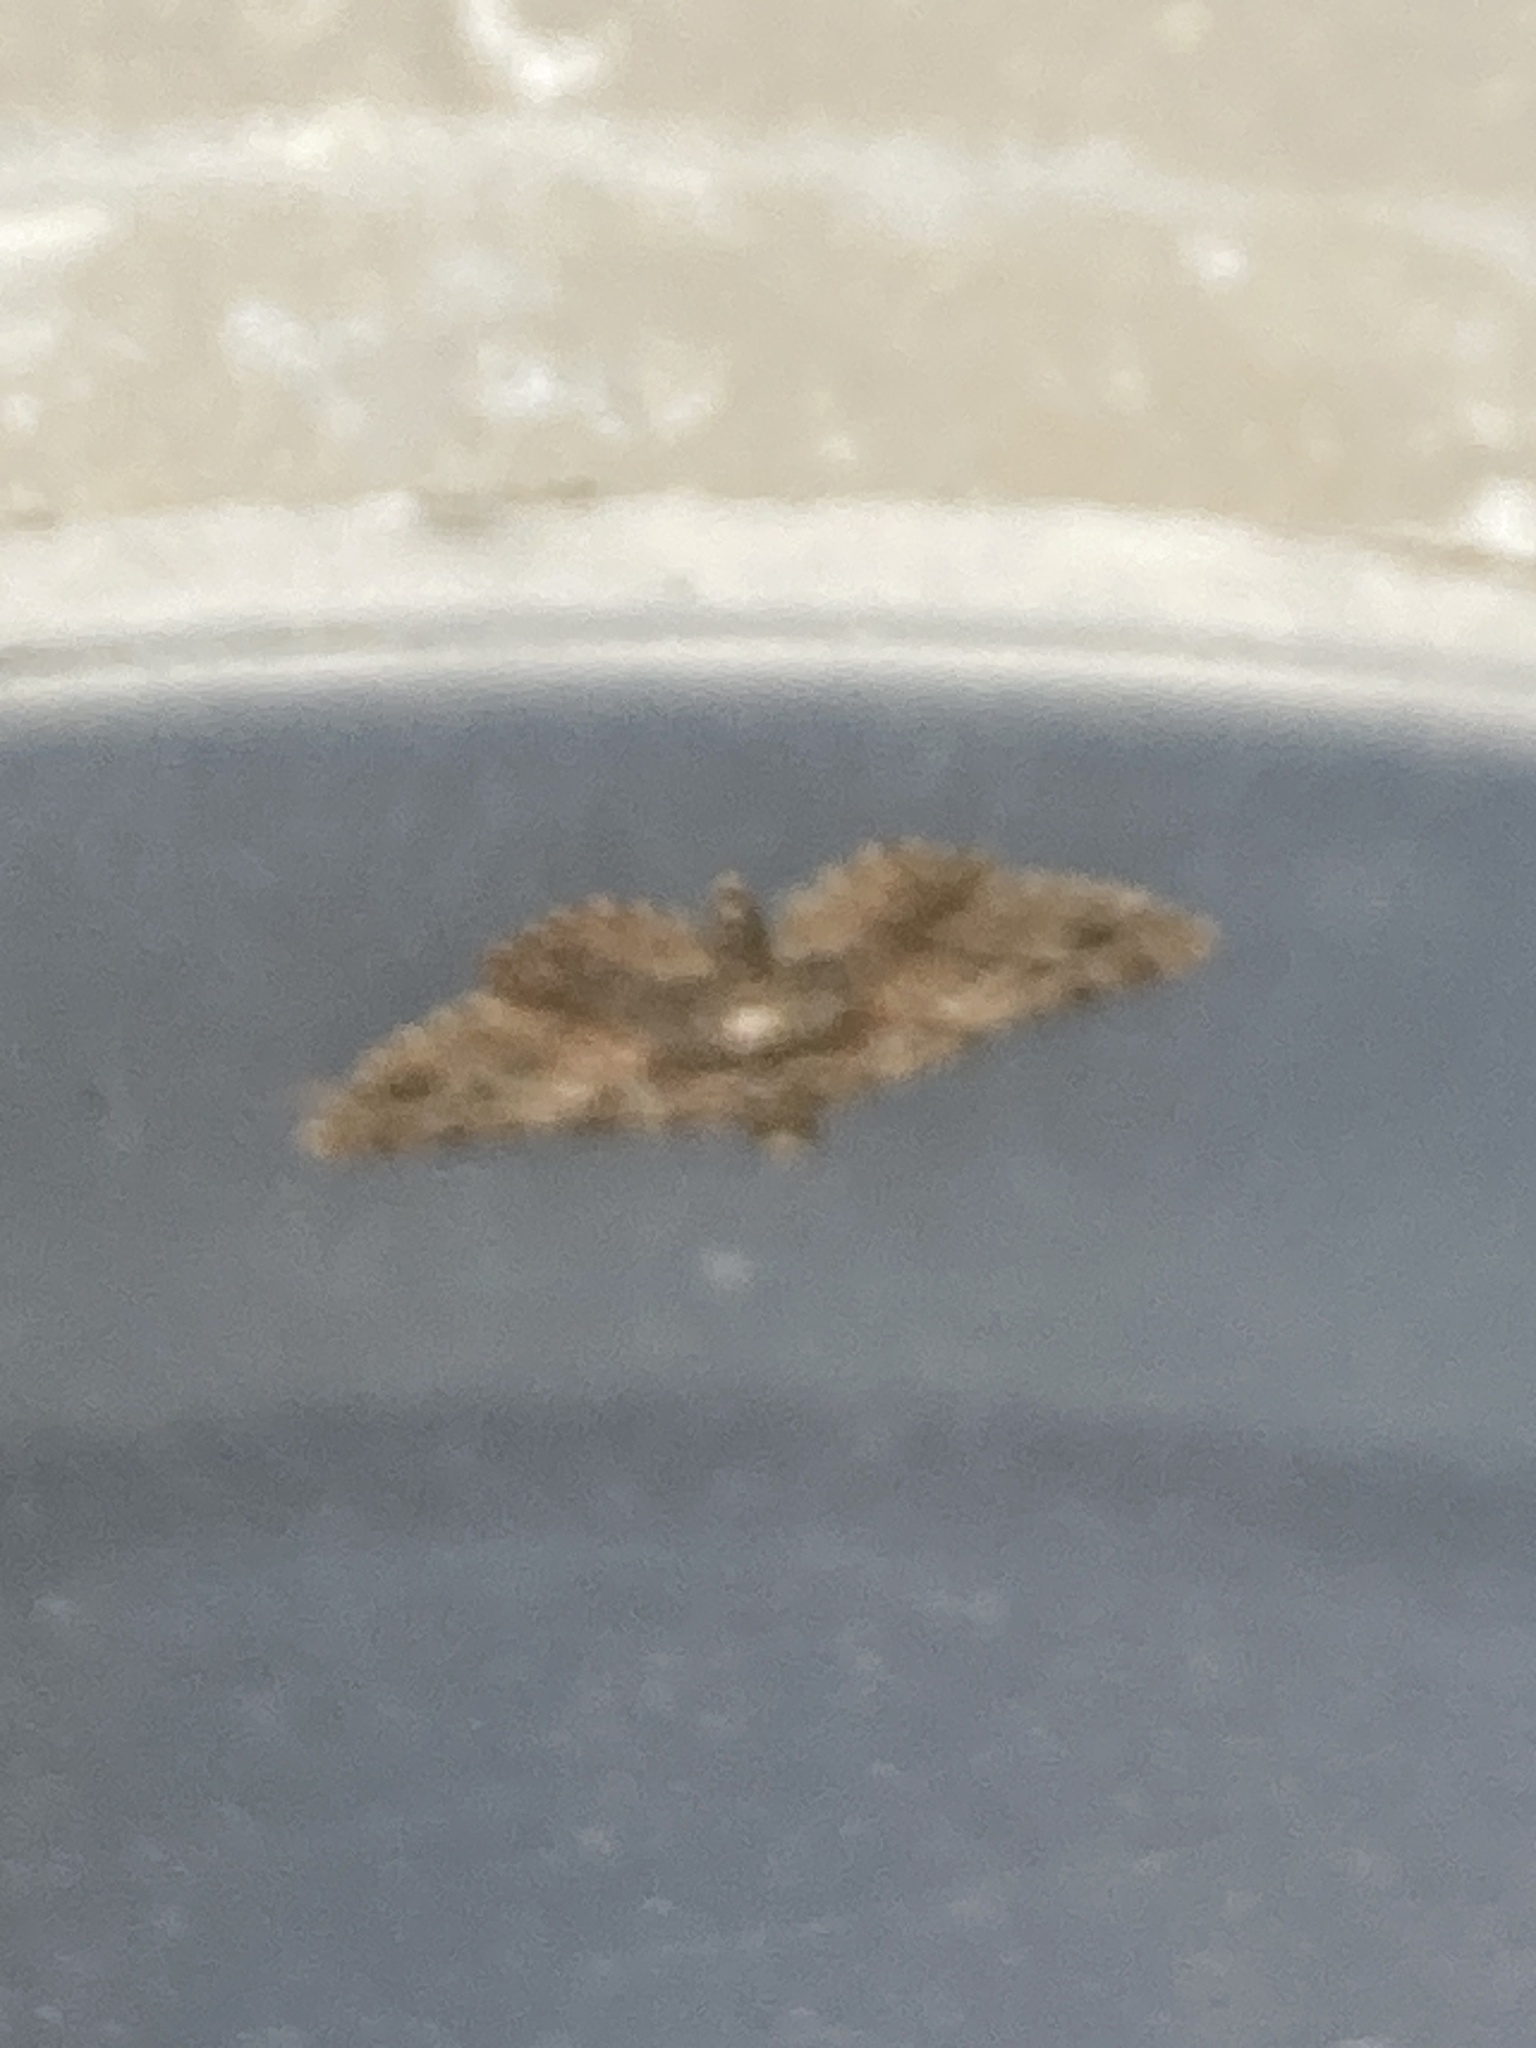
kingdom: Animalia
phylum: Arthropoda
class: Insecta
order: Lepidoptera
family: Geometridae
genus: Gymnoscelis
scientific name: Gymnoscelis rufifasciata
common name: Double-striped pug
